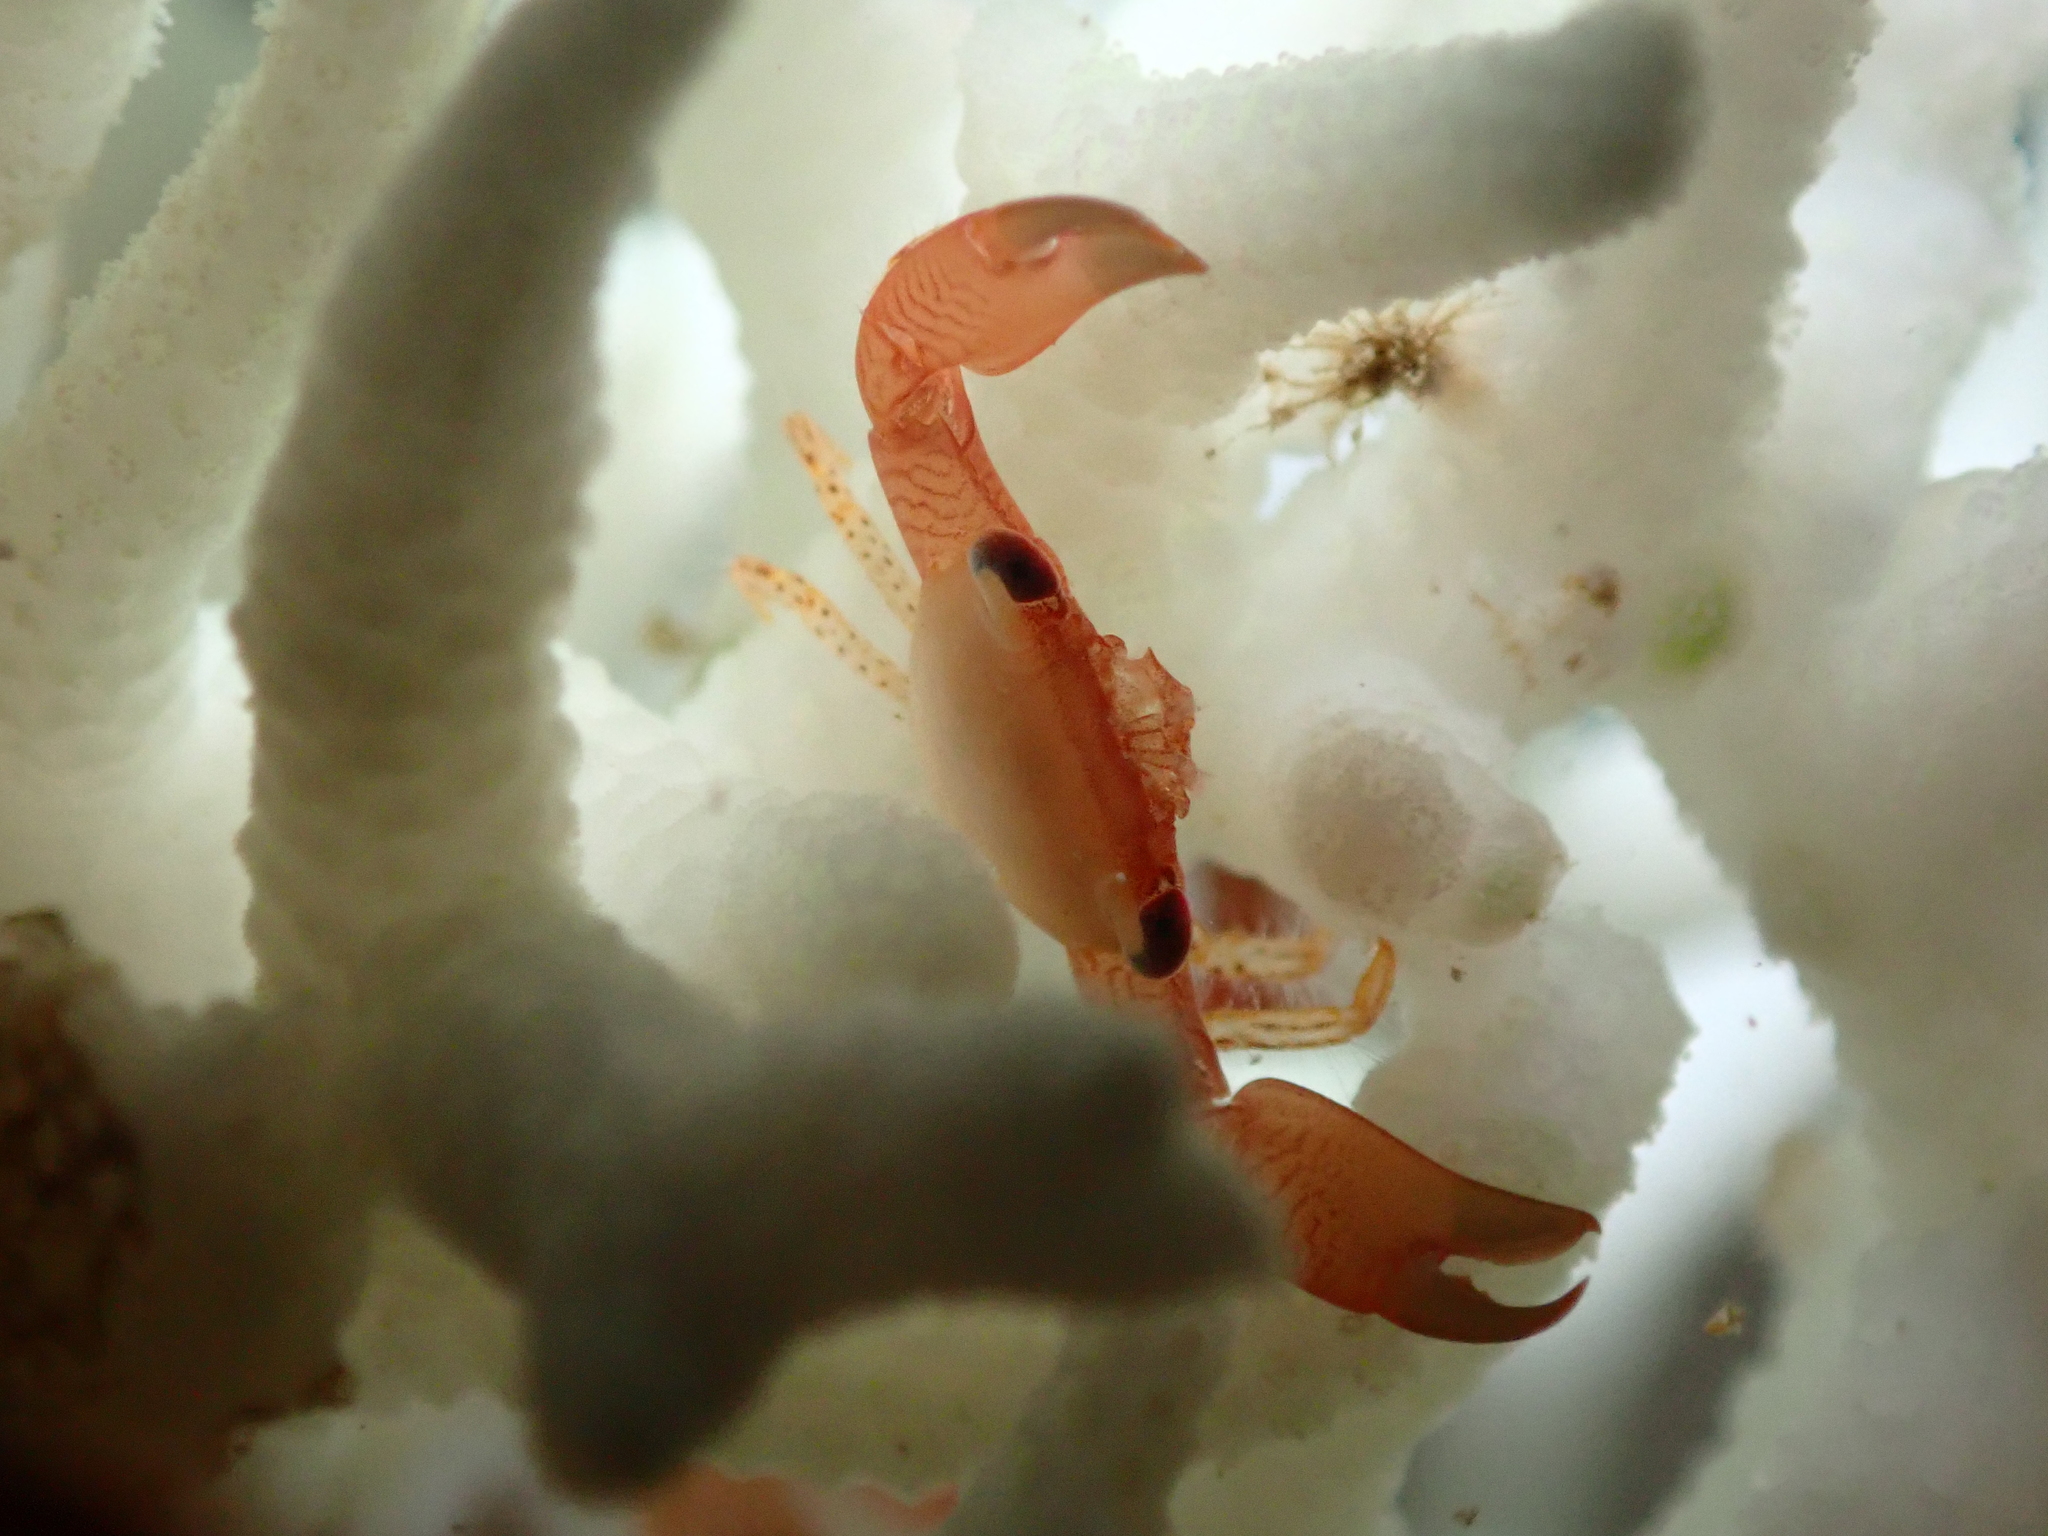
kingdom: Animalia
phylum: Arthropoda
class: Malacostraca
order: Decapoda
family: Trapeziidae
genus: Trapezia
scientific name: Trapezia guttata
